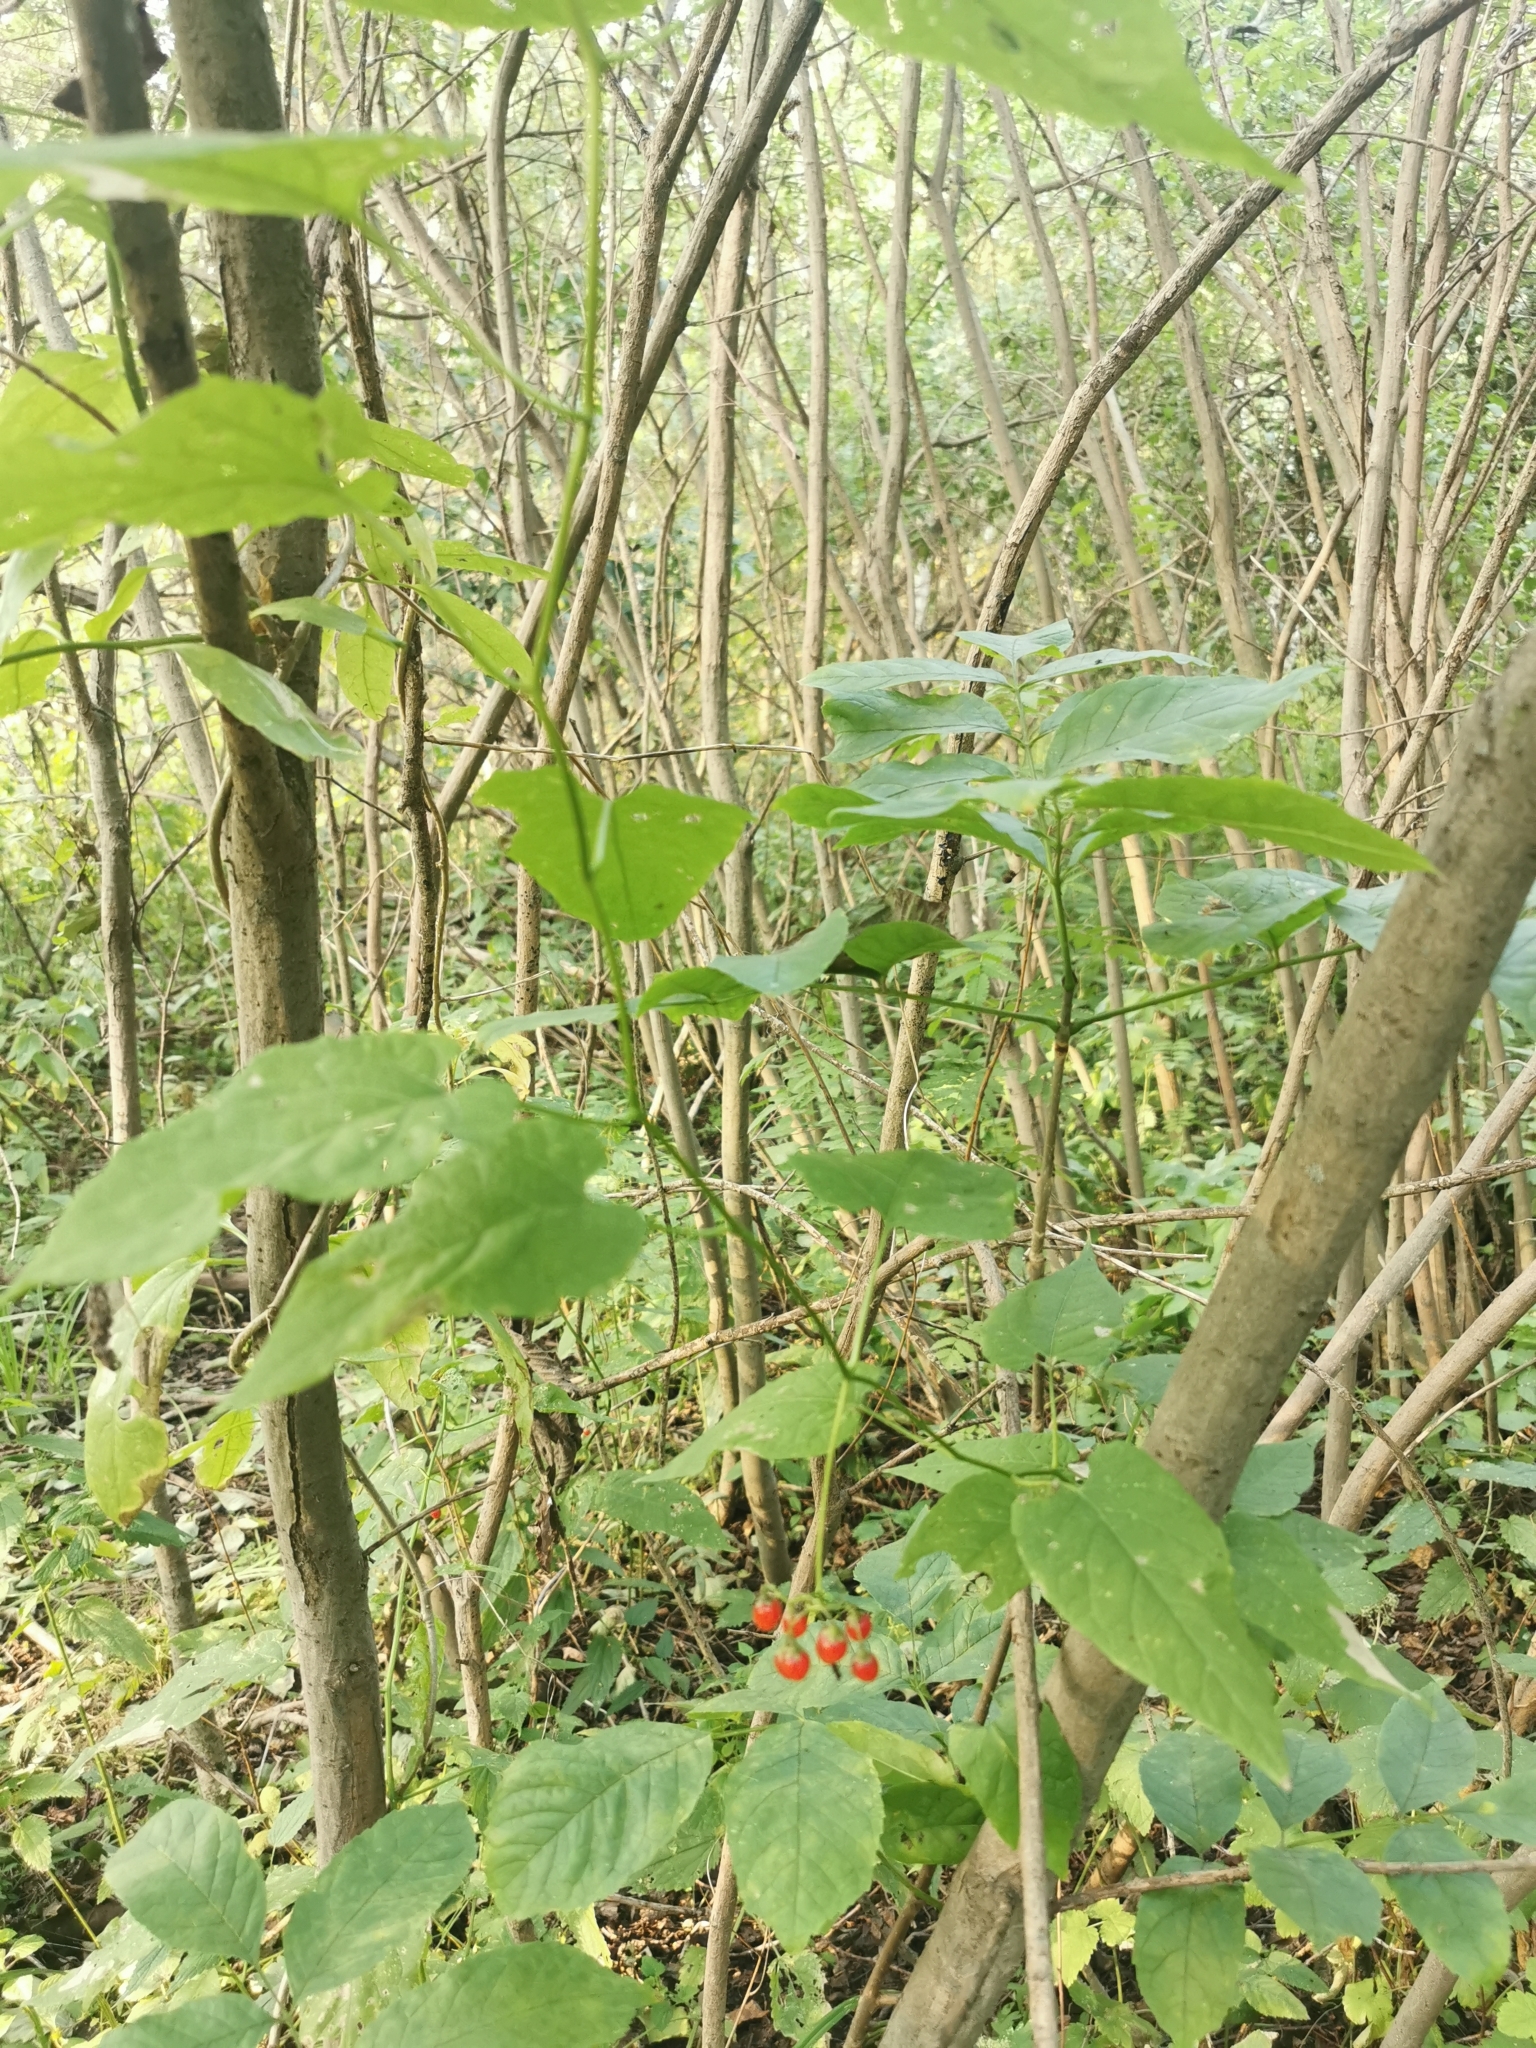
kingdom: Plantae
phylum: Tracheophyta
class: Magnoliopsida
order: Solanales
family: Solanaceae
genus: Solanum
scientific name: Solanum dulcamara
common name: Climbing nightshade
